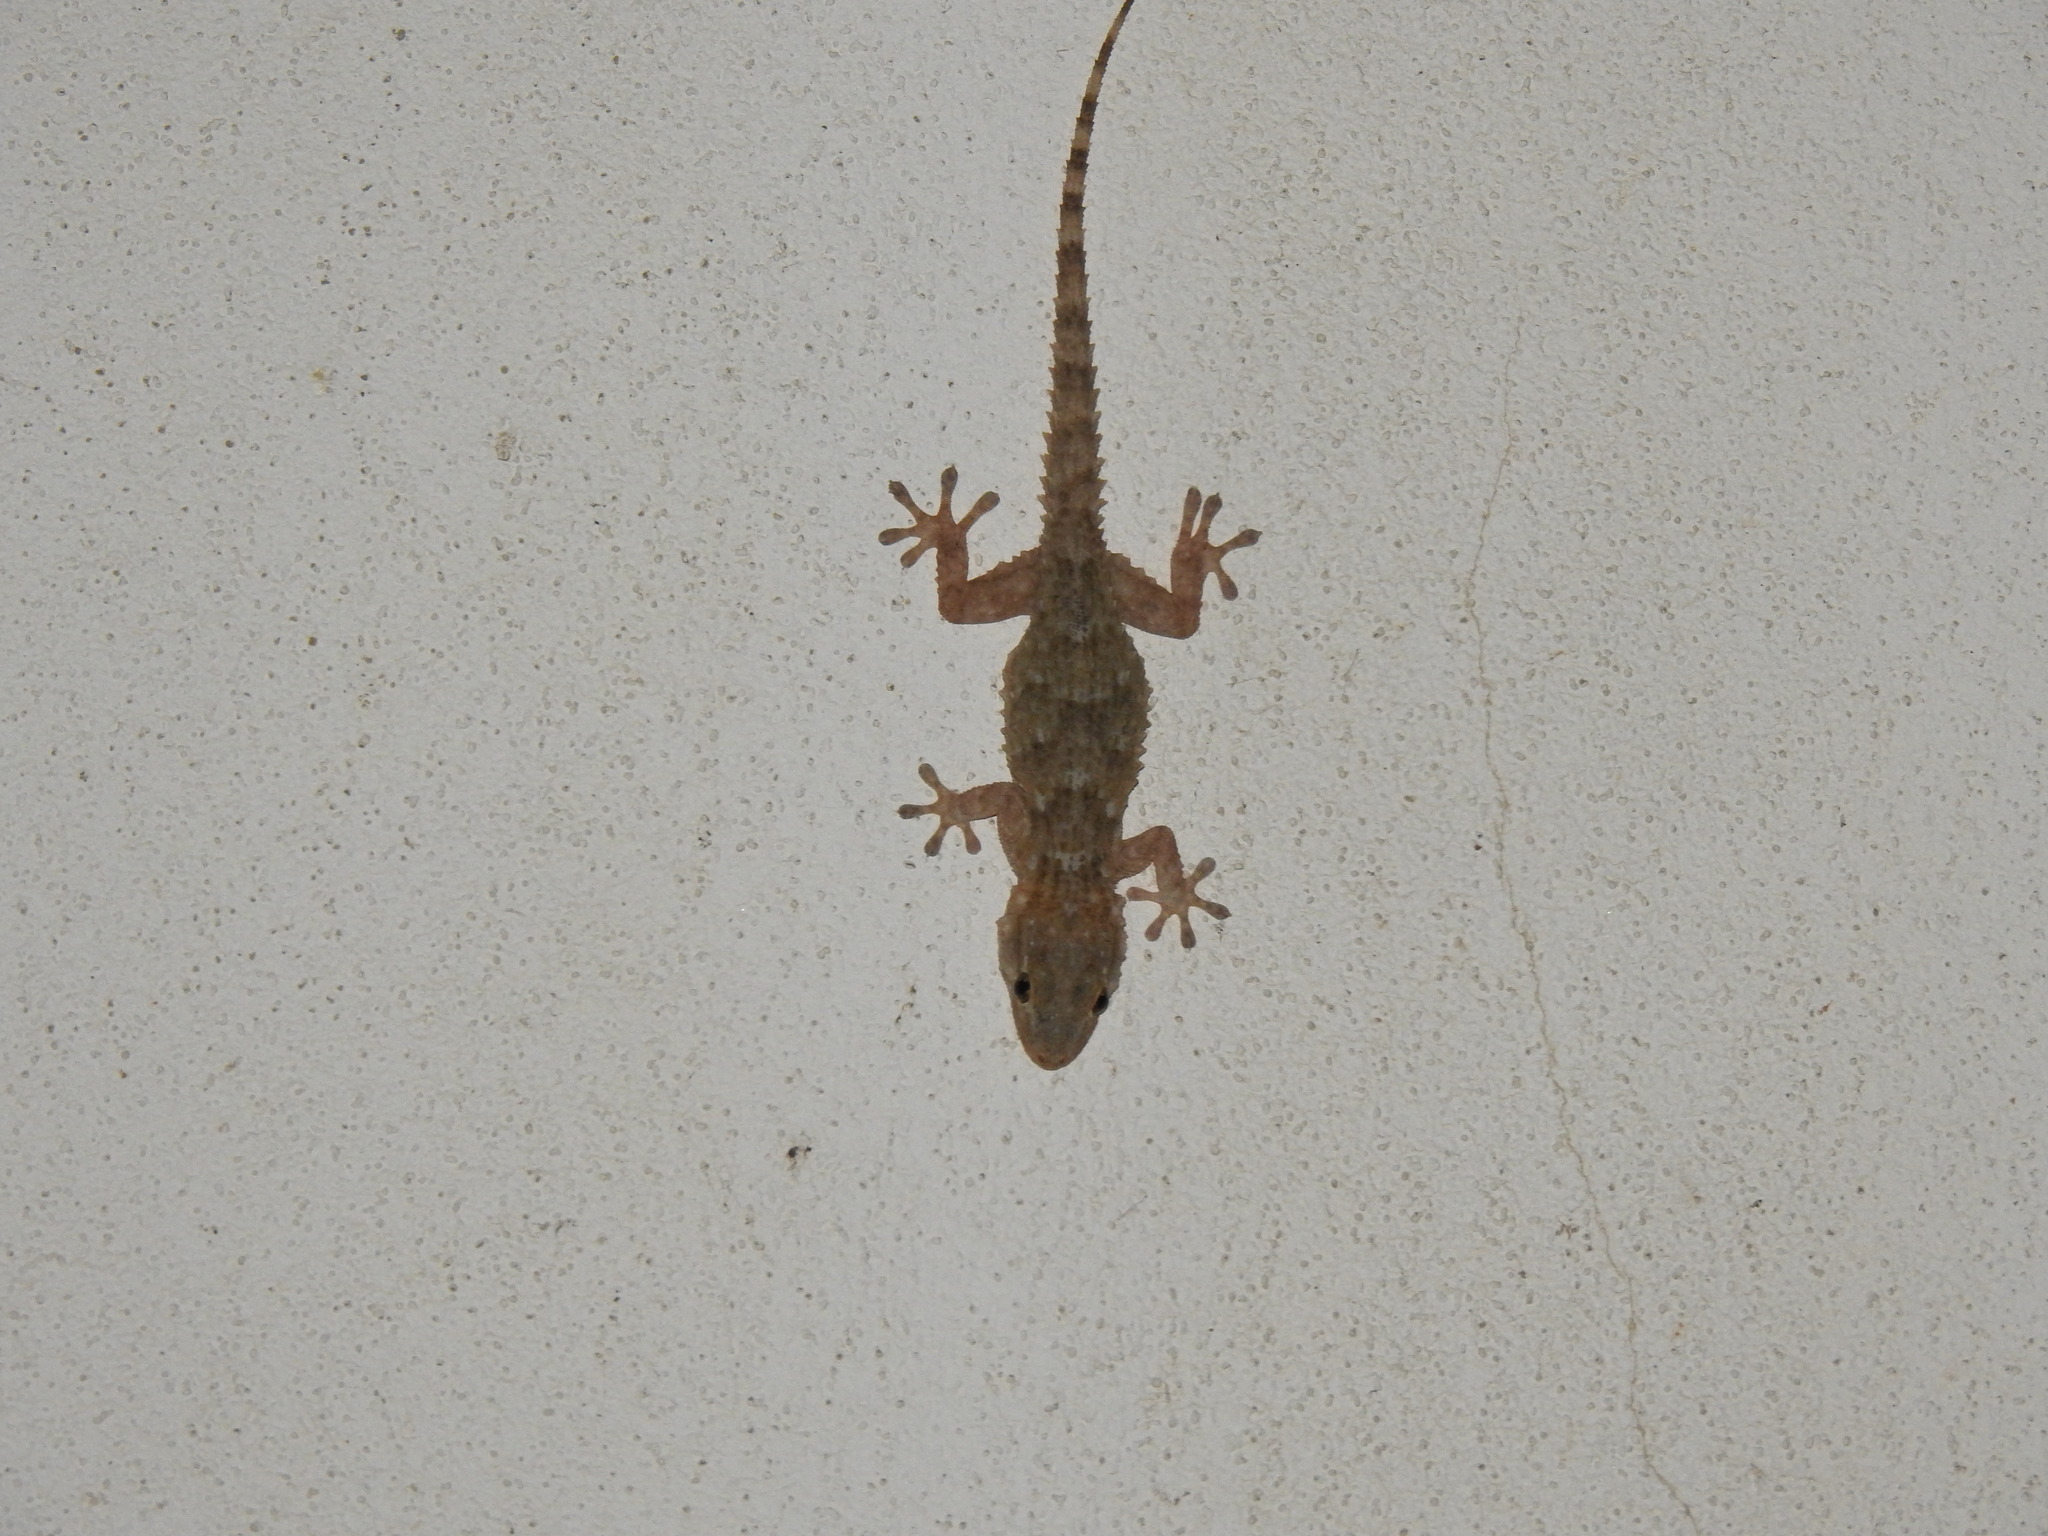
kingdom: Animalia
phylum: Chordata
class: Squamata
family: Phyllodactylidae
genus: Tarentola
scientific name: Tarentola mauritanica
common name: Moorish gecko
